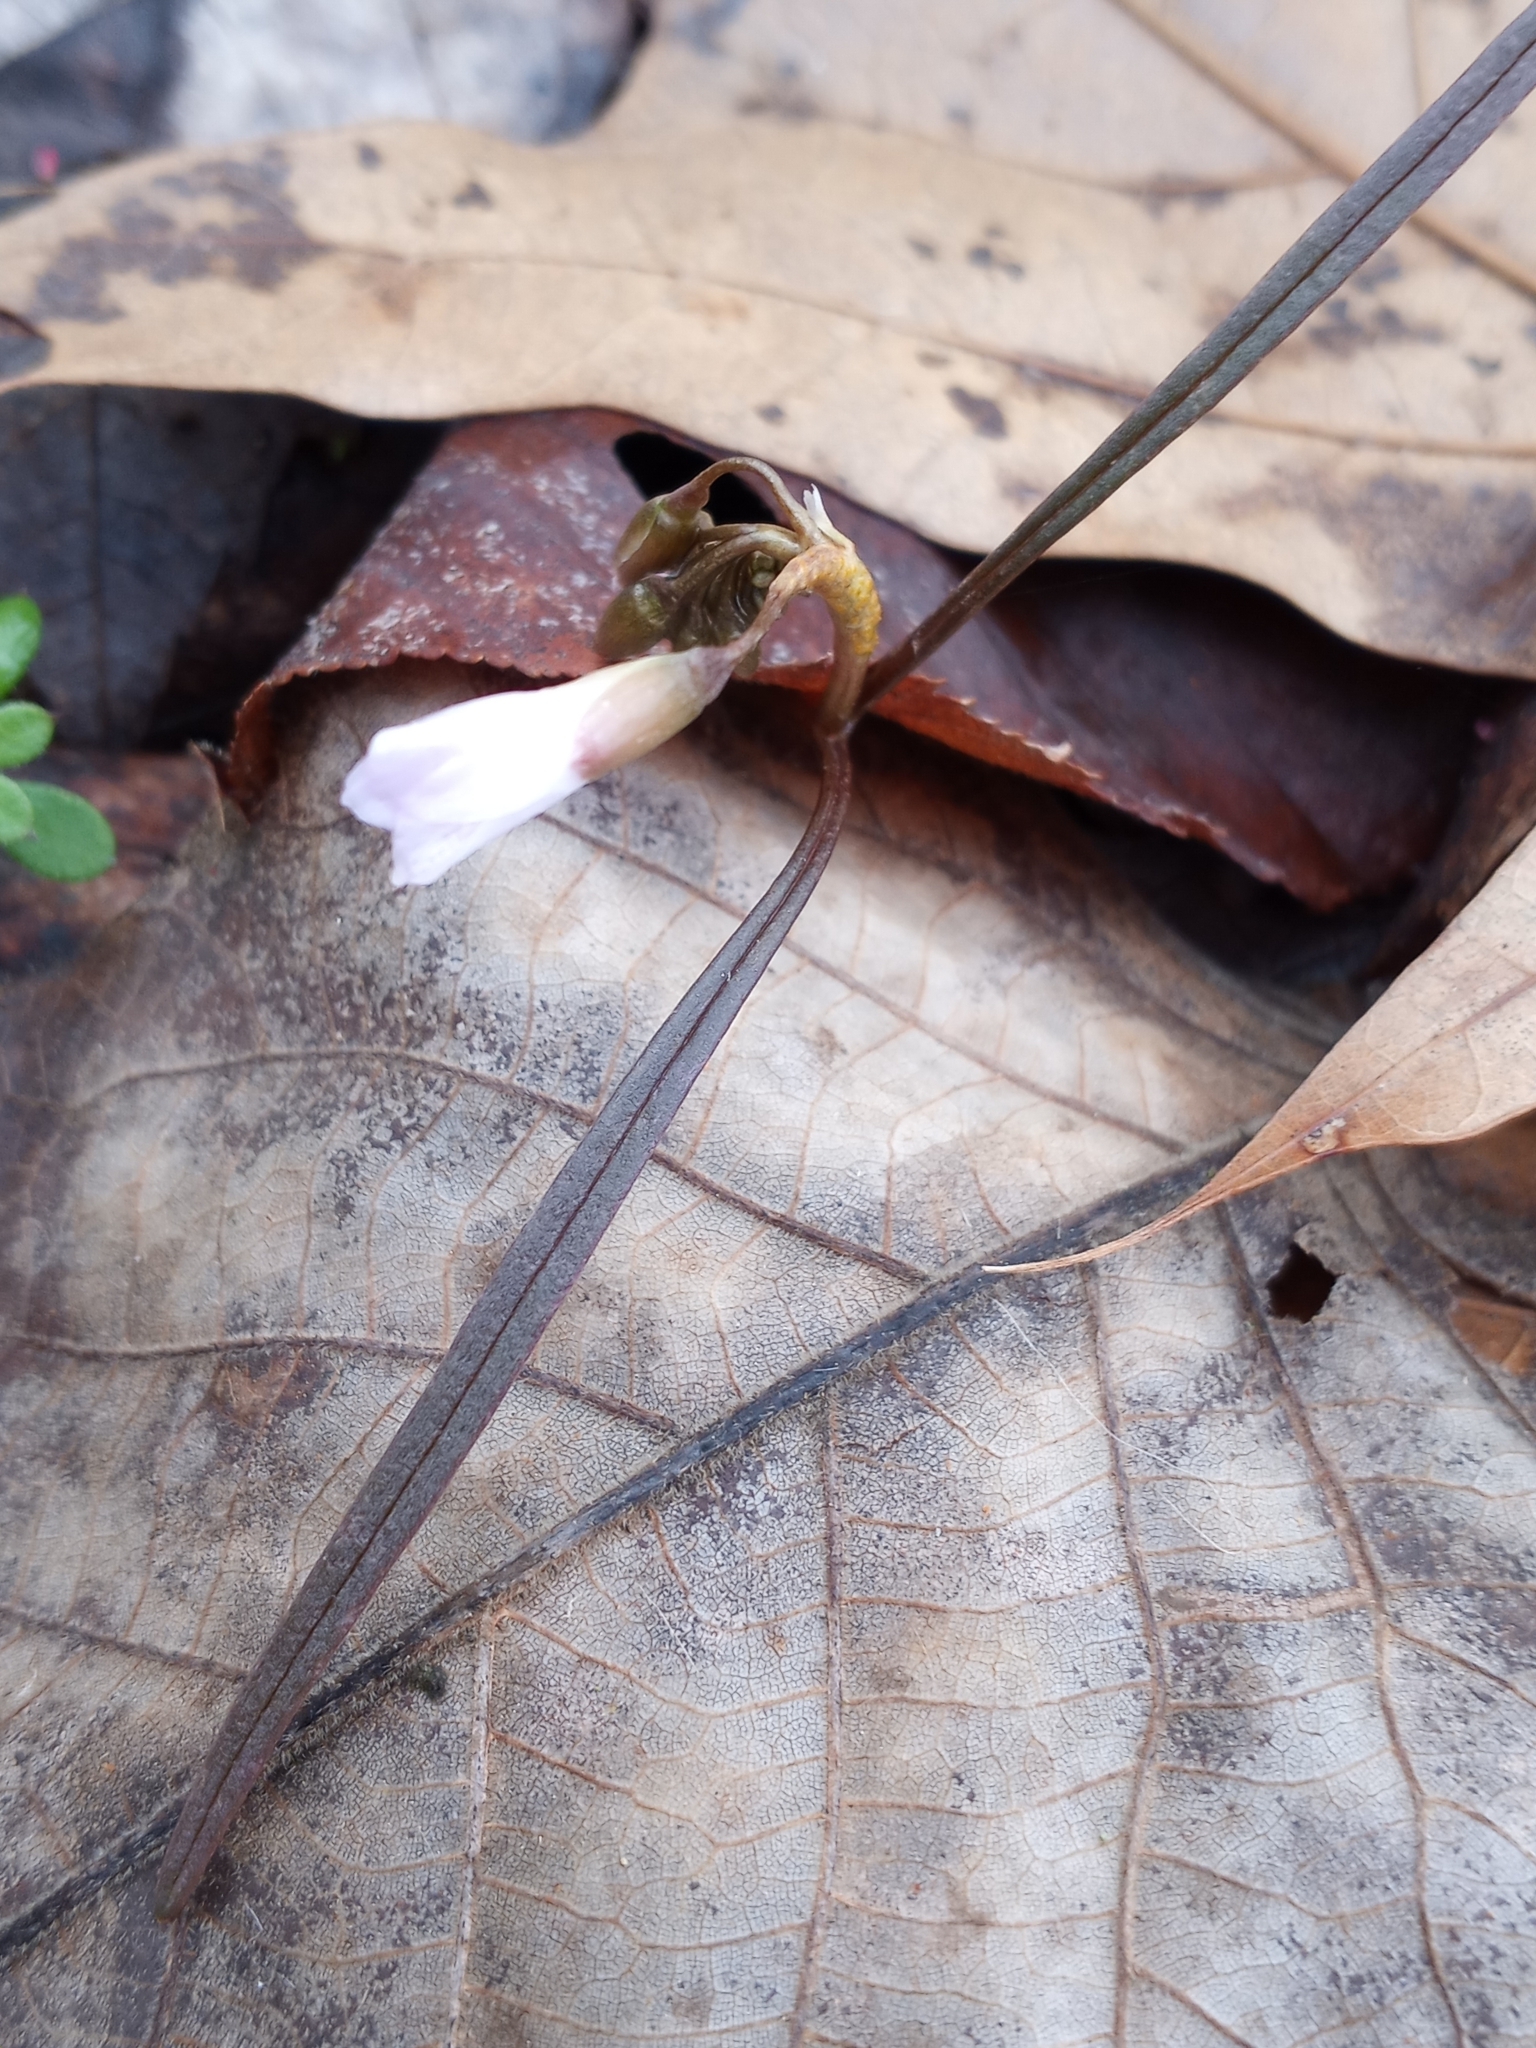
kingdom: Plantae
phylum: Tracheophyta
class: Magnoliopsida
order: Caryophyllales
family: Montiaceae
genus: Claytonia
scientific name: Claytonia virginica
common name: Virginia springbeauty
